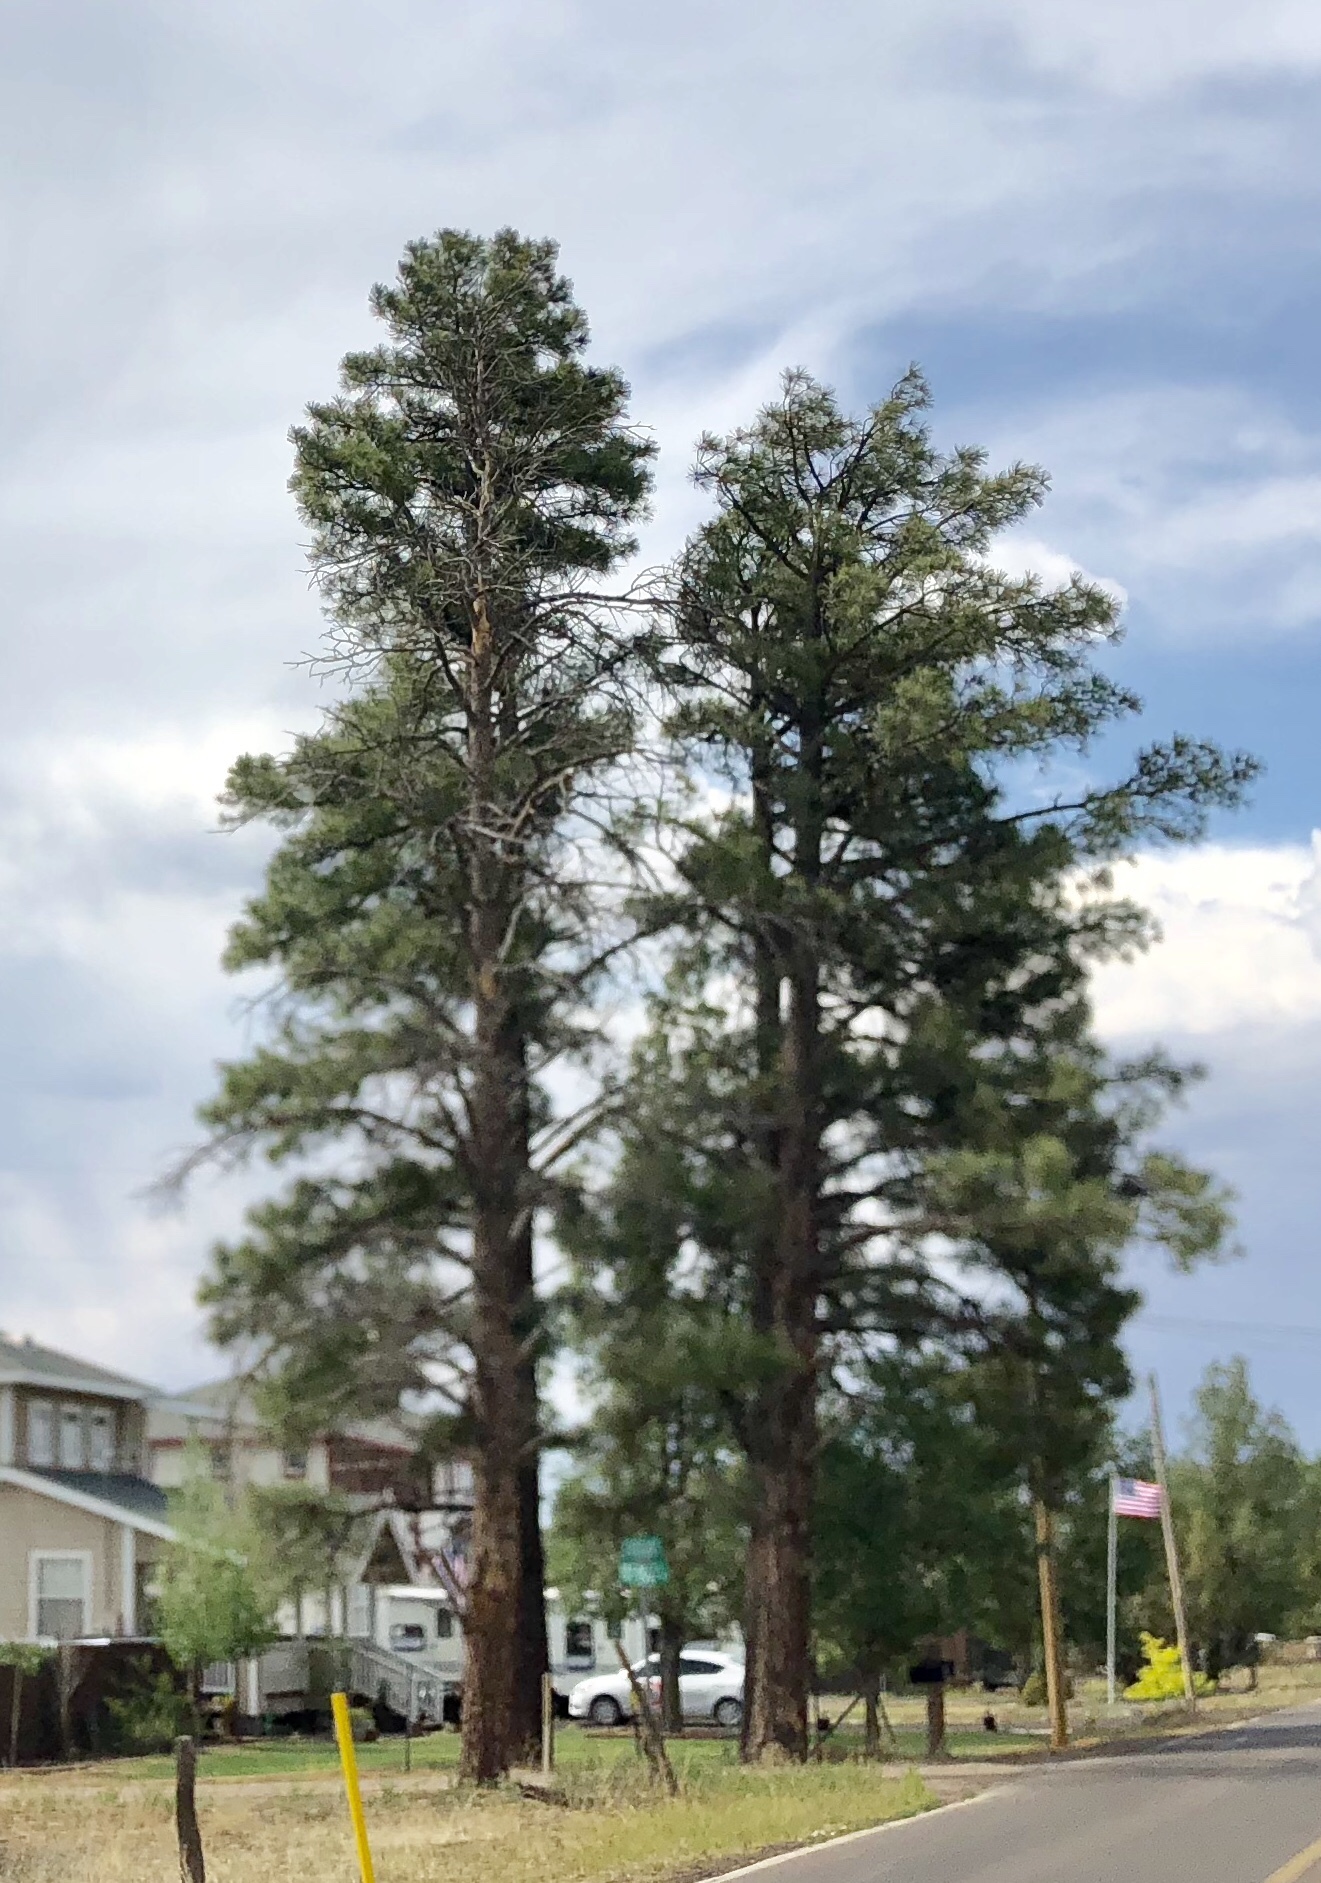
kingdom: Plantae
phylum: Tracheophyta
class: Pinopsida
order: Pinales
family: Pinaceae
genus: Pinus
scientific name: Pinus ponderosa
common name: Western yellow-pine
